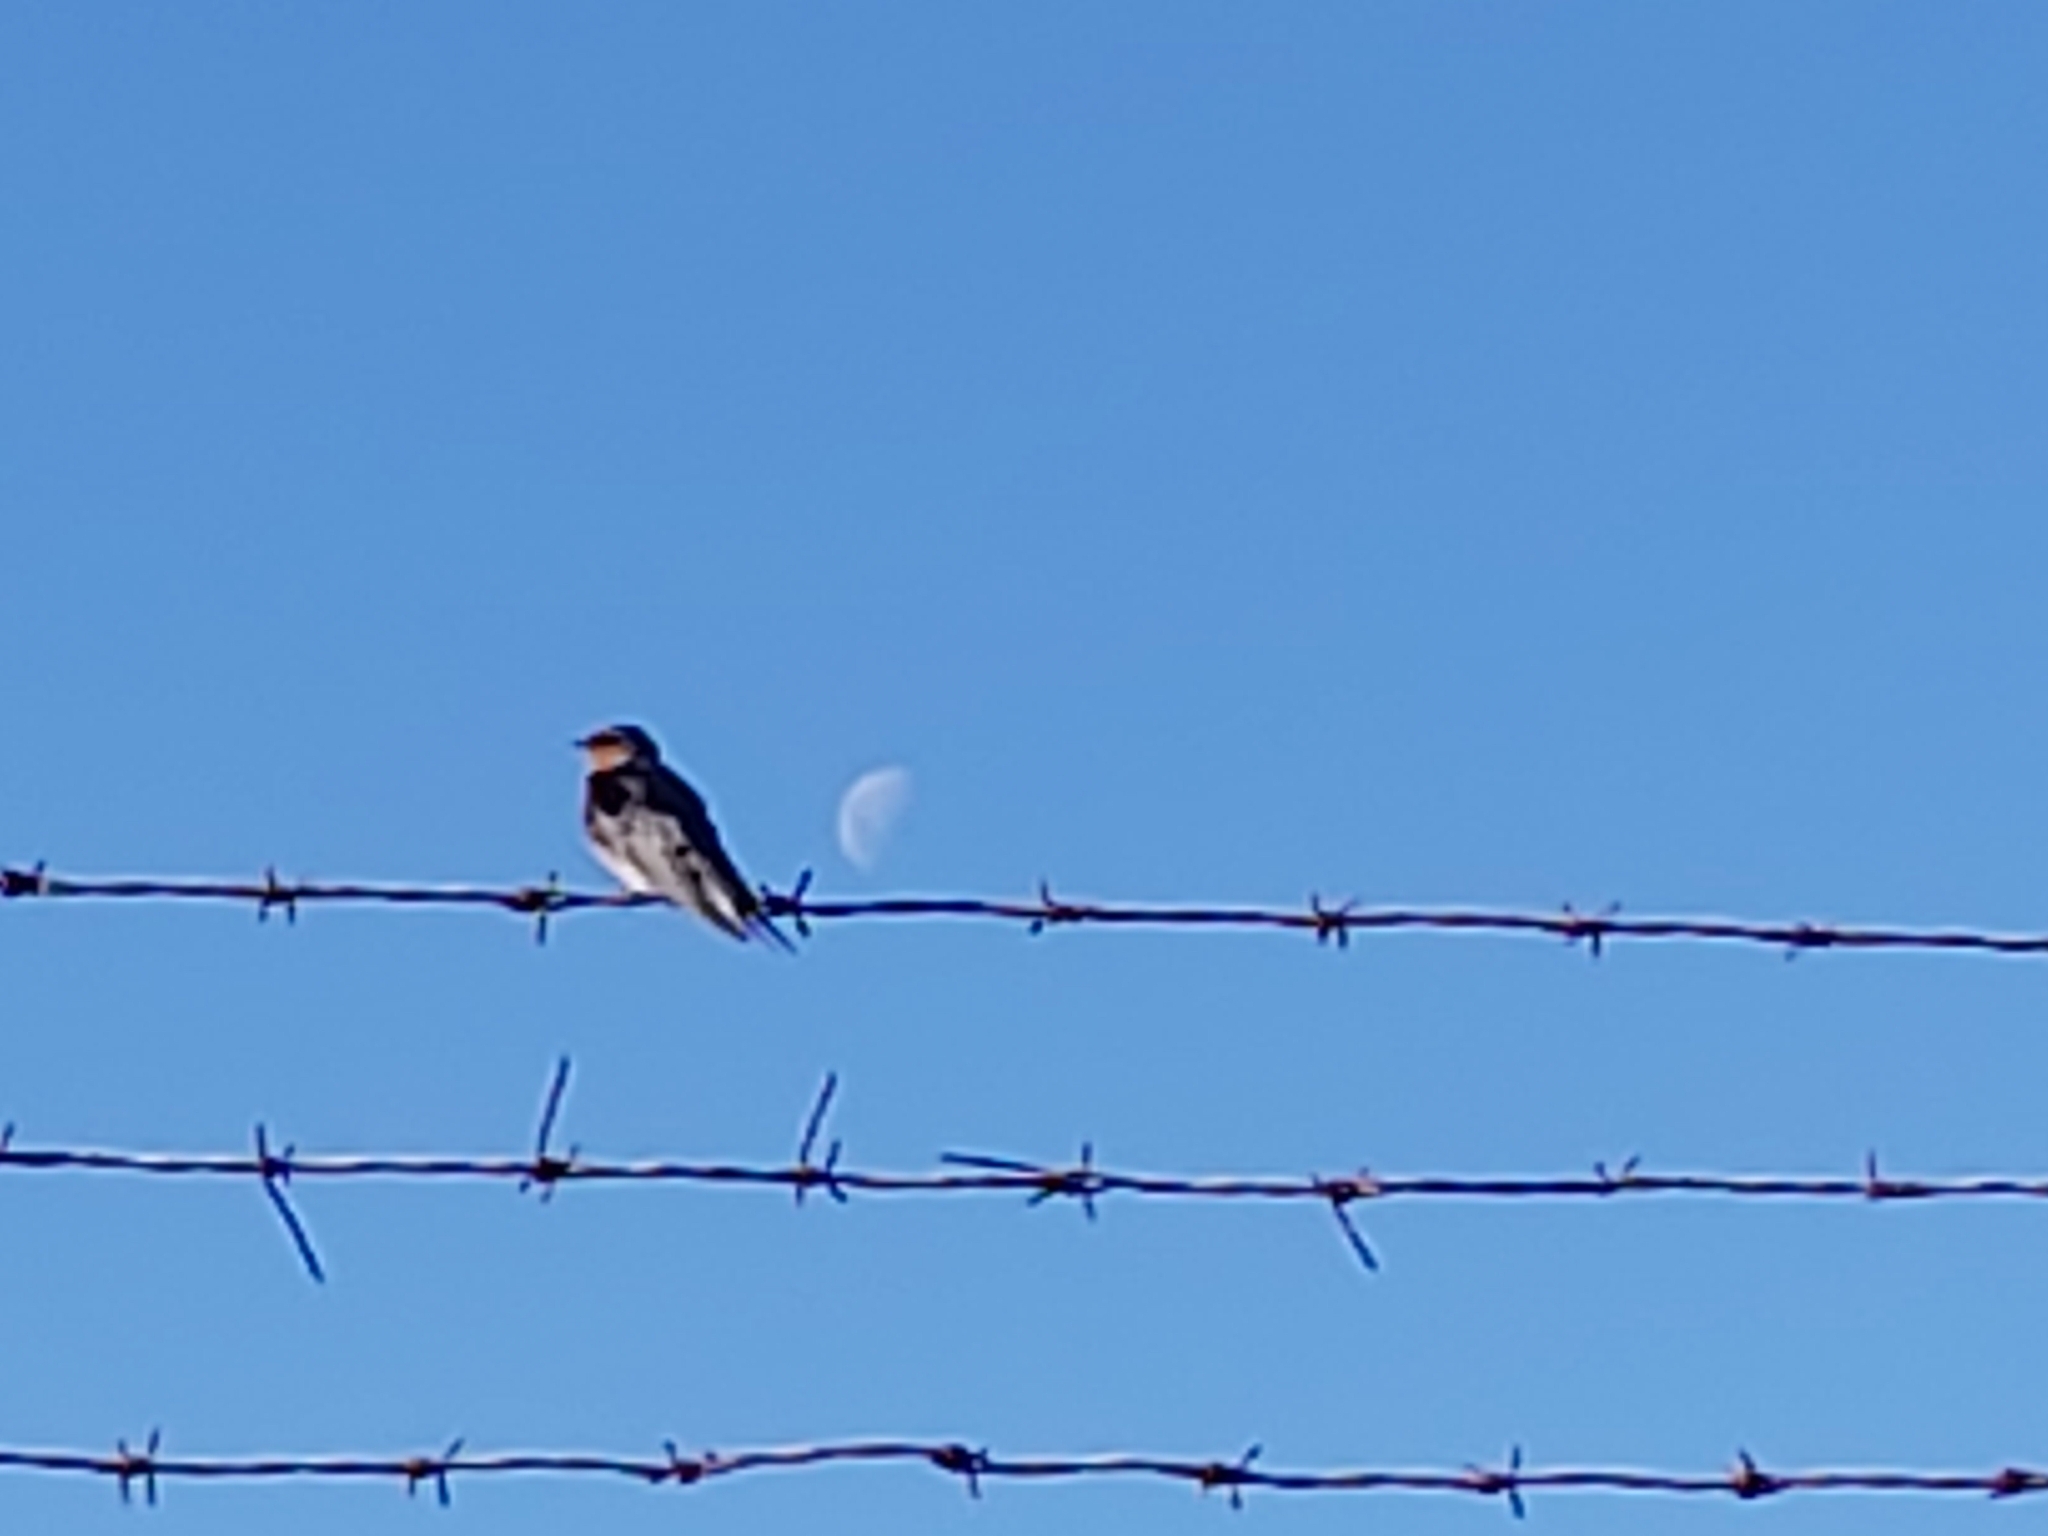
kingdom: Animalia
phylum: Chordata
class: Aves
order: Passeriformes
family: Hirundinidae
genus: Hirundo
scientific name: Hirundo neoxena
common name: Welcome swallow
